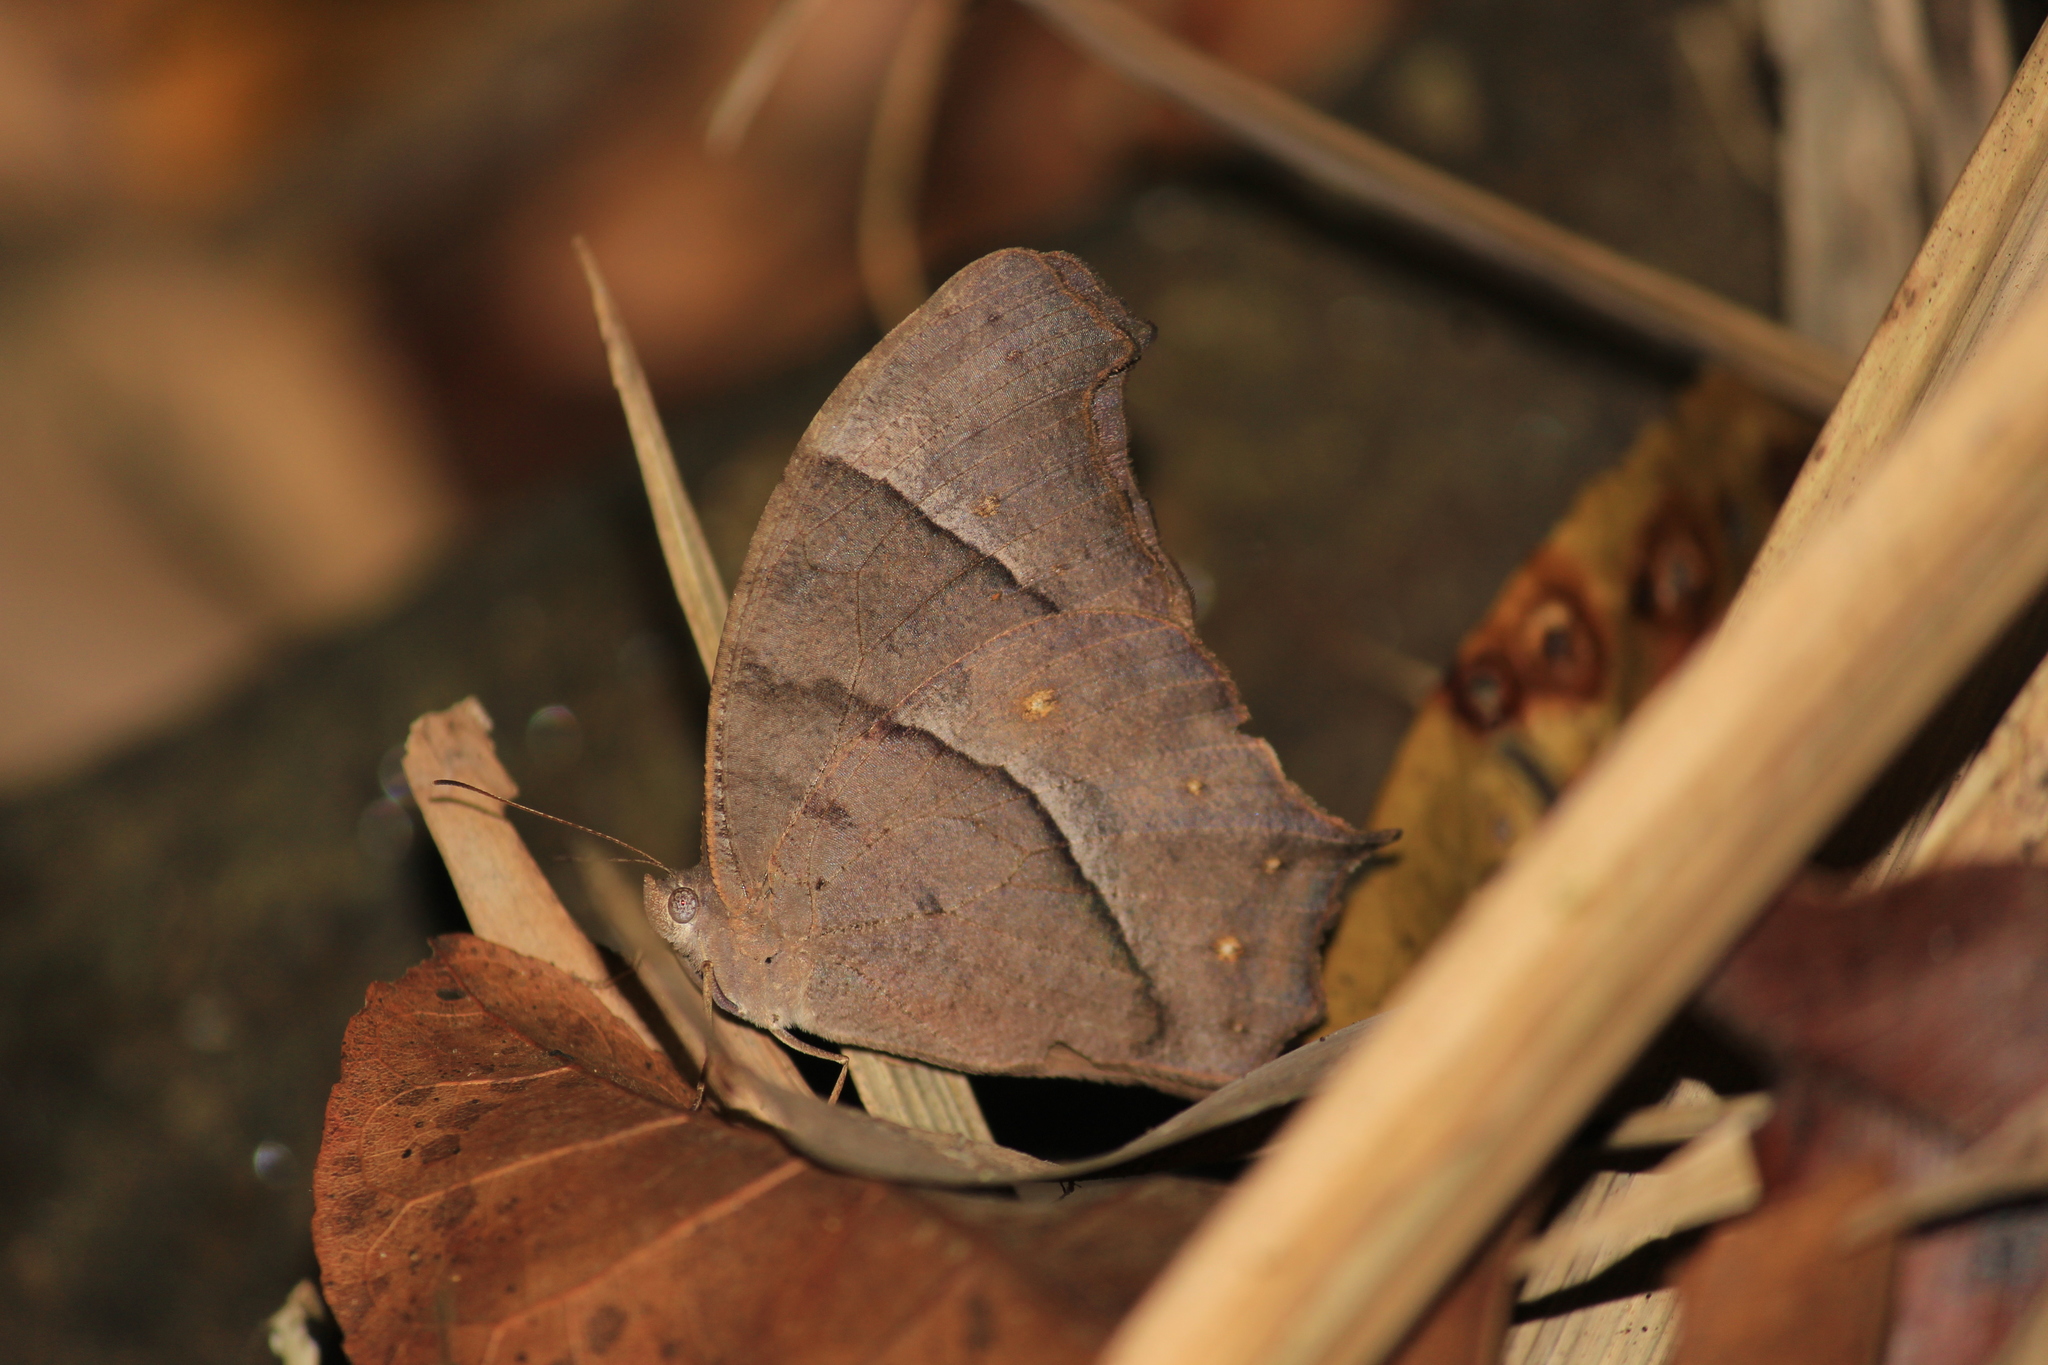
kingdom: Animalia
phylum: Arthropoda
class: Insecta
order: Lepidoptera
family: Nymphalidae
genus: Melanitis
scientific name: Melanitis phedima
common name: Dark evening brown
